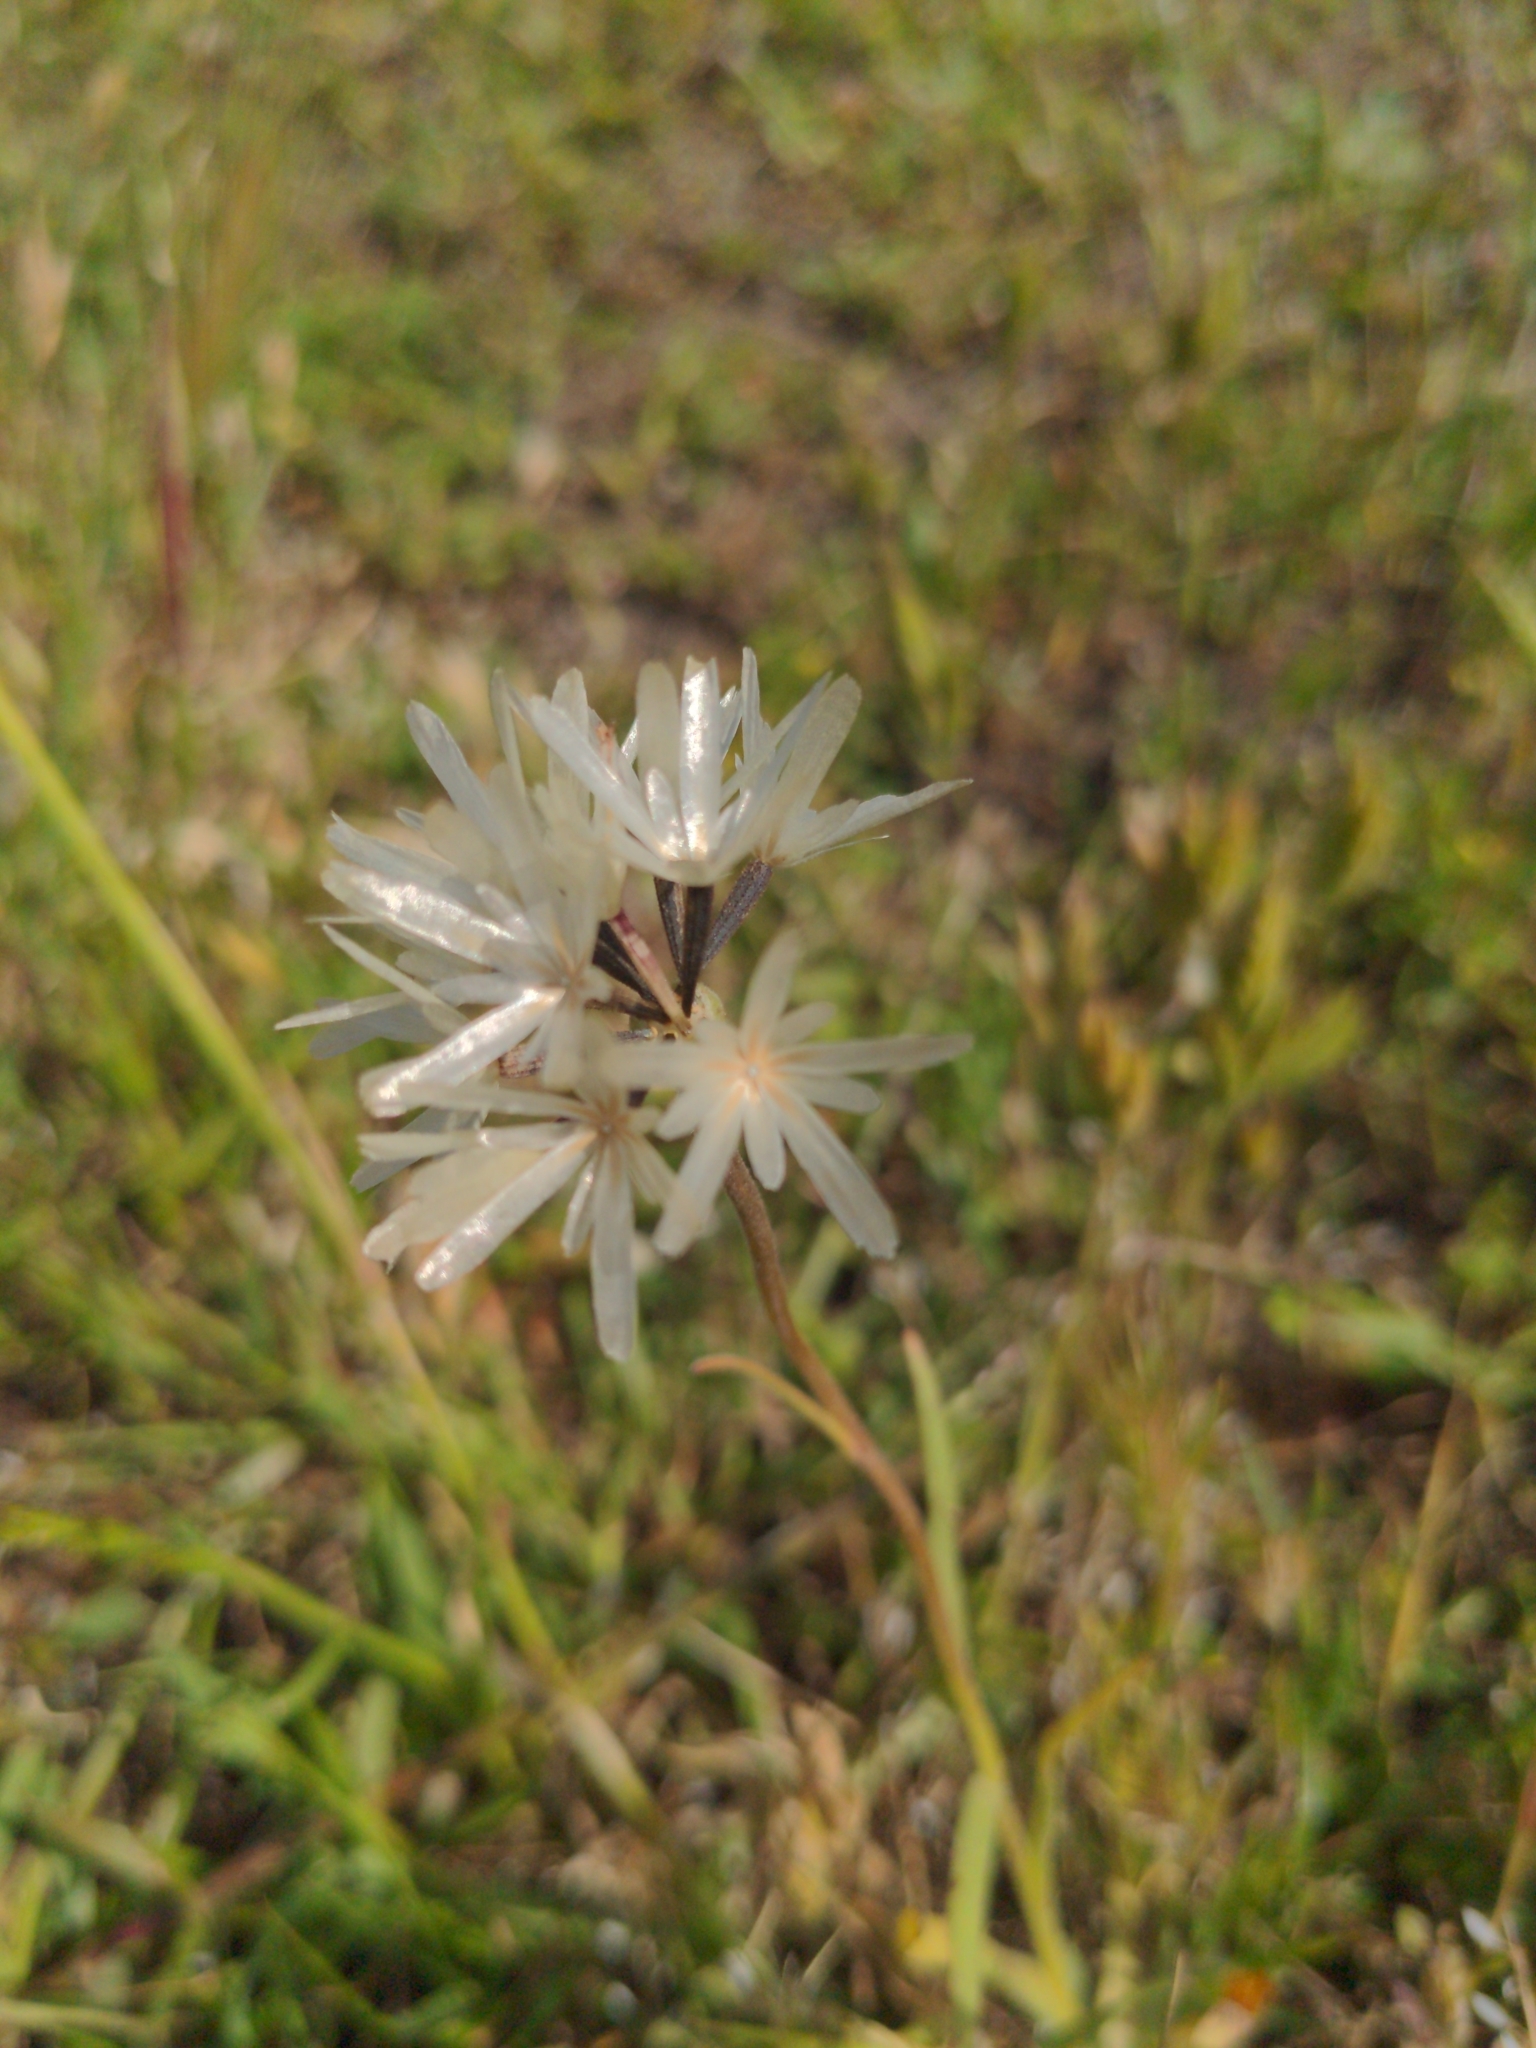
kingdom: Plantae
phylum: Tracheophyta
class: Magnoliopsida
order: Asterales
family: Asteraceae
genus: Achyrachaena
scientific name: Achyrachaena mollis
